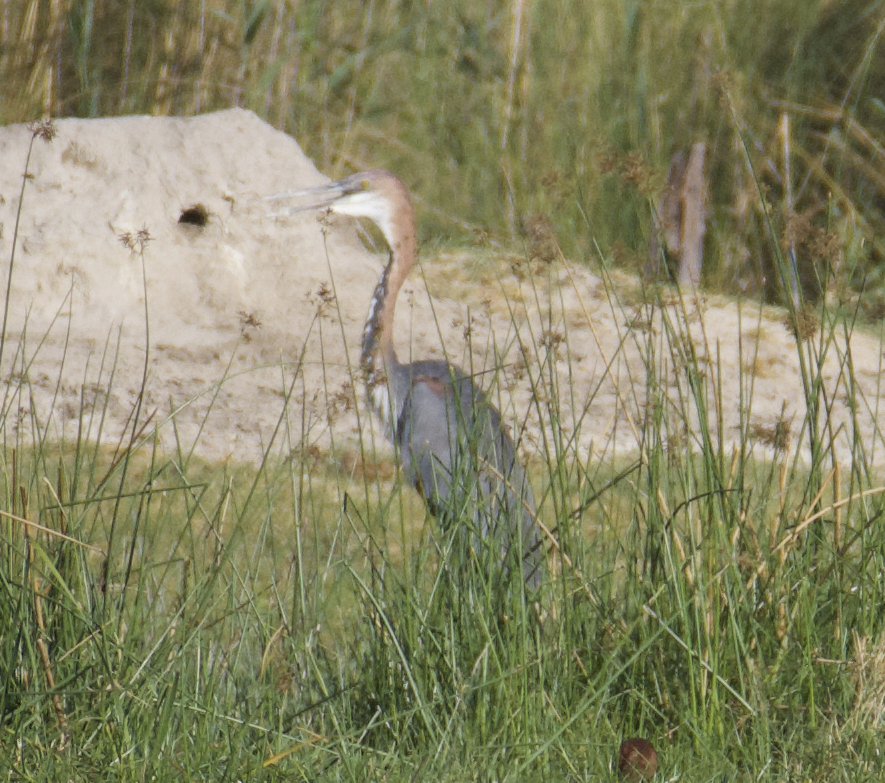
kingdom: Animalia
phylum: Chordata
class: Aves
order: Pelecaniformes
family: Ardeidae
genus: Ardea
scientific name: Ardea goliath
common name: Goliath heron
